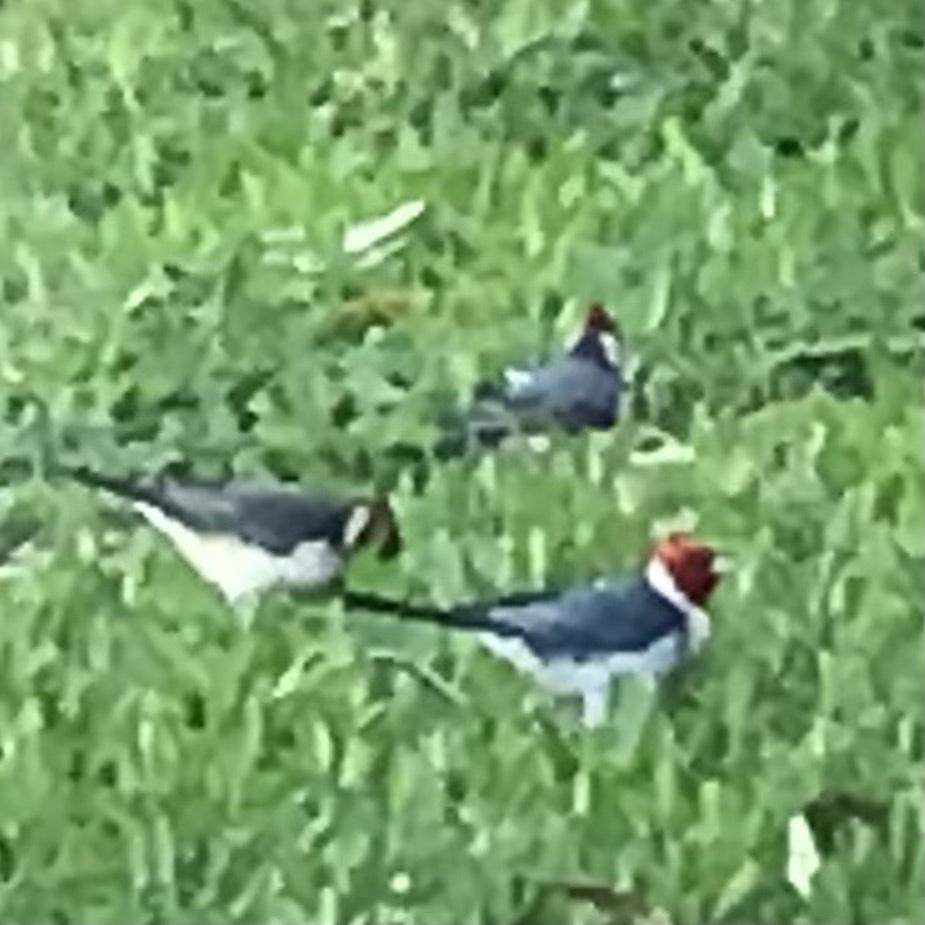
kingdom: Animalia
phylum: Chordata
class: Aves
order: Passeriformes
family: Thraupidae
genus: Paroaria
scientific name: Paroaria coronata
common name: Red-crested cardinal
